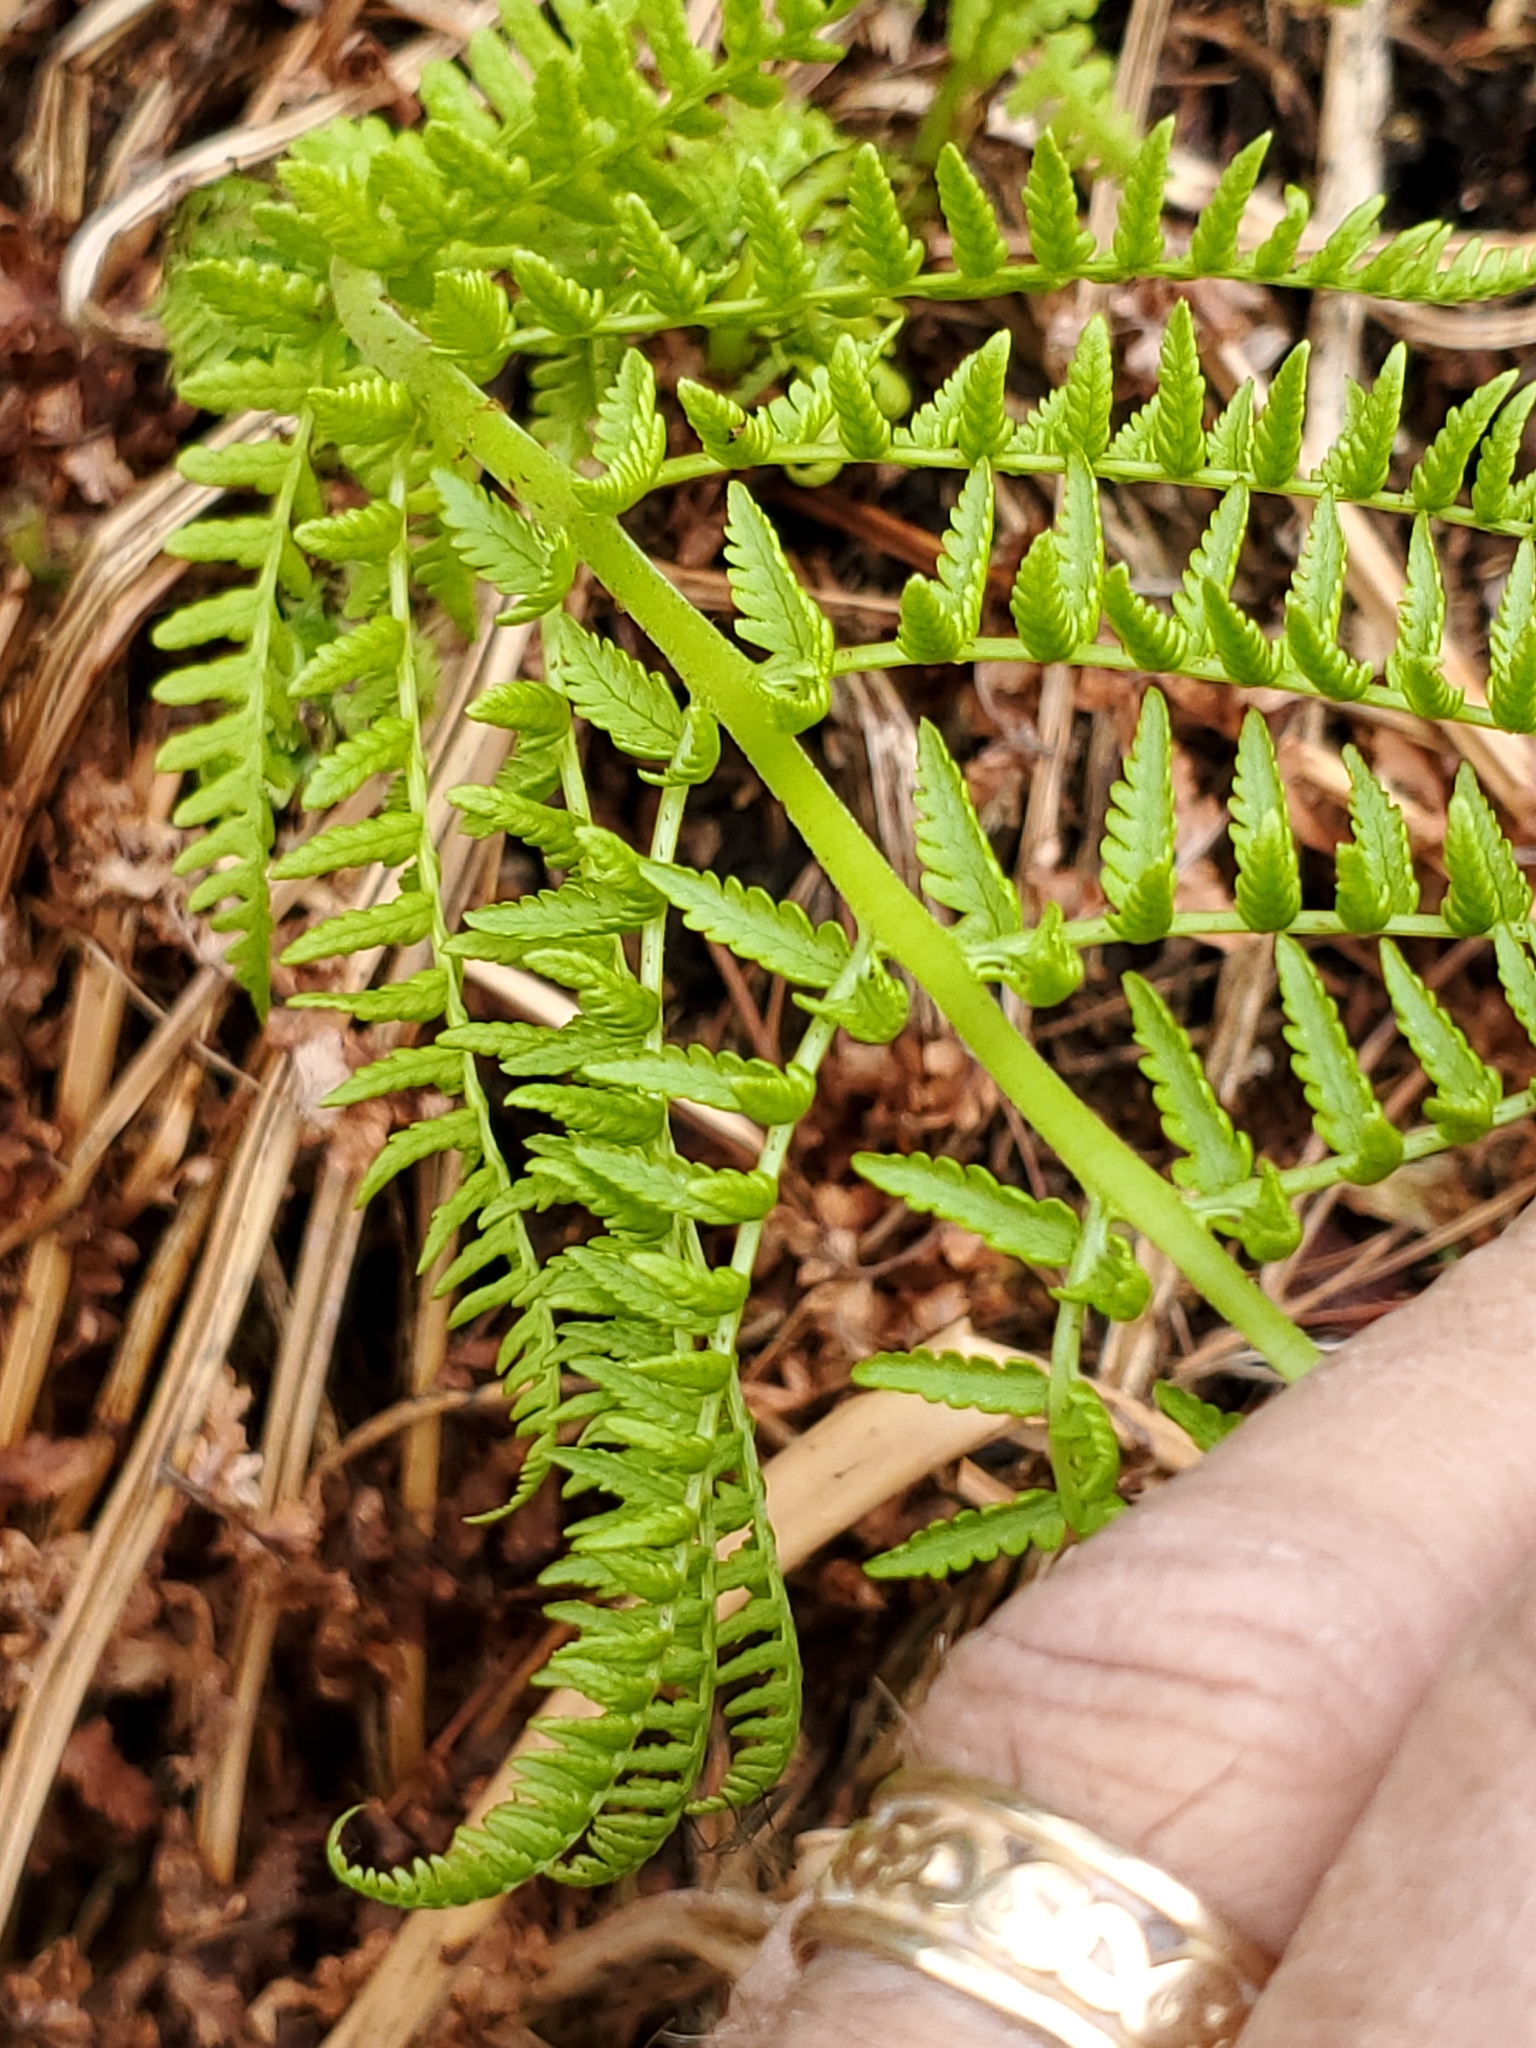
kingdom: Plantae
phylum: Tracheophyta
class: Polypodiopsida
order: Polypodiales
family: Athyriaceae
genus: Athyrium
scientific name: Athyrium cyclosorum
